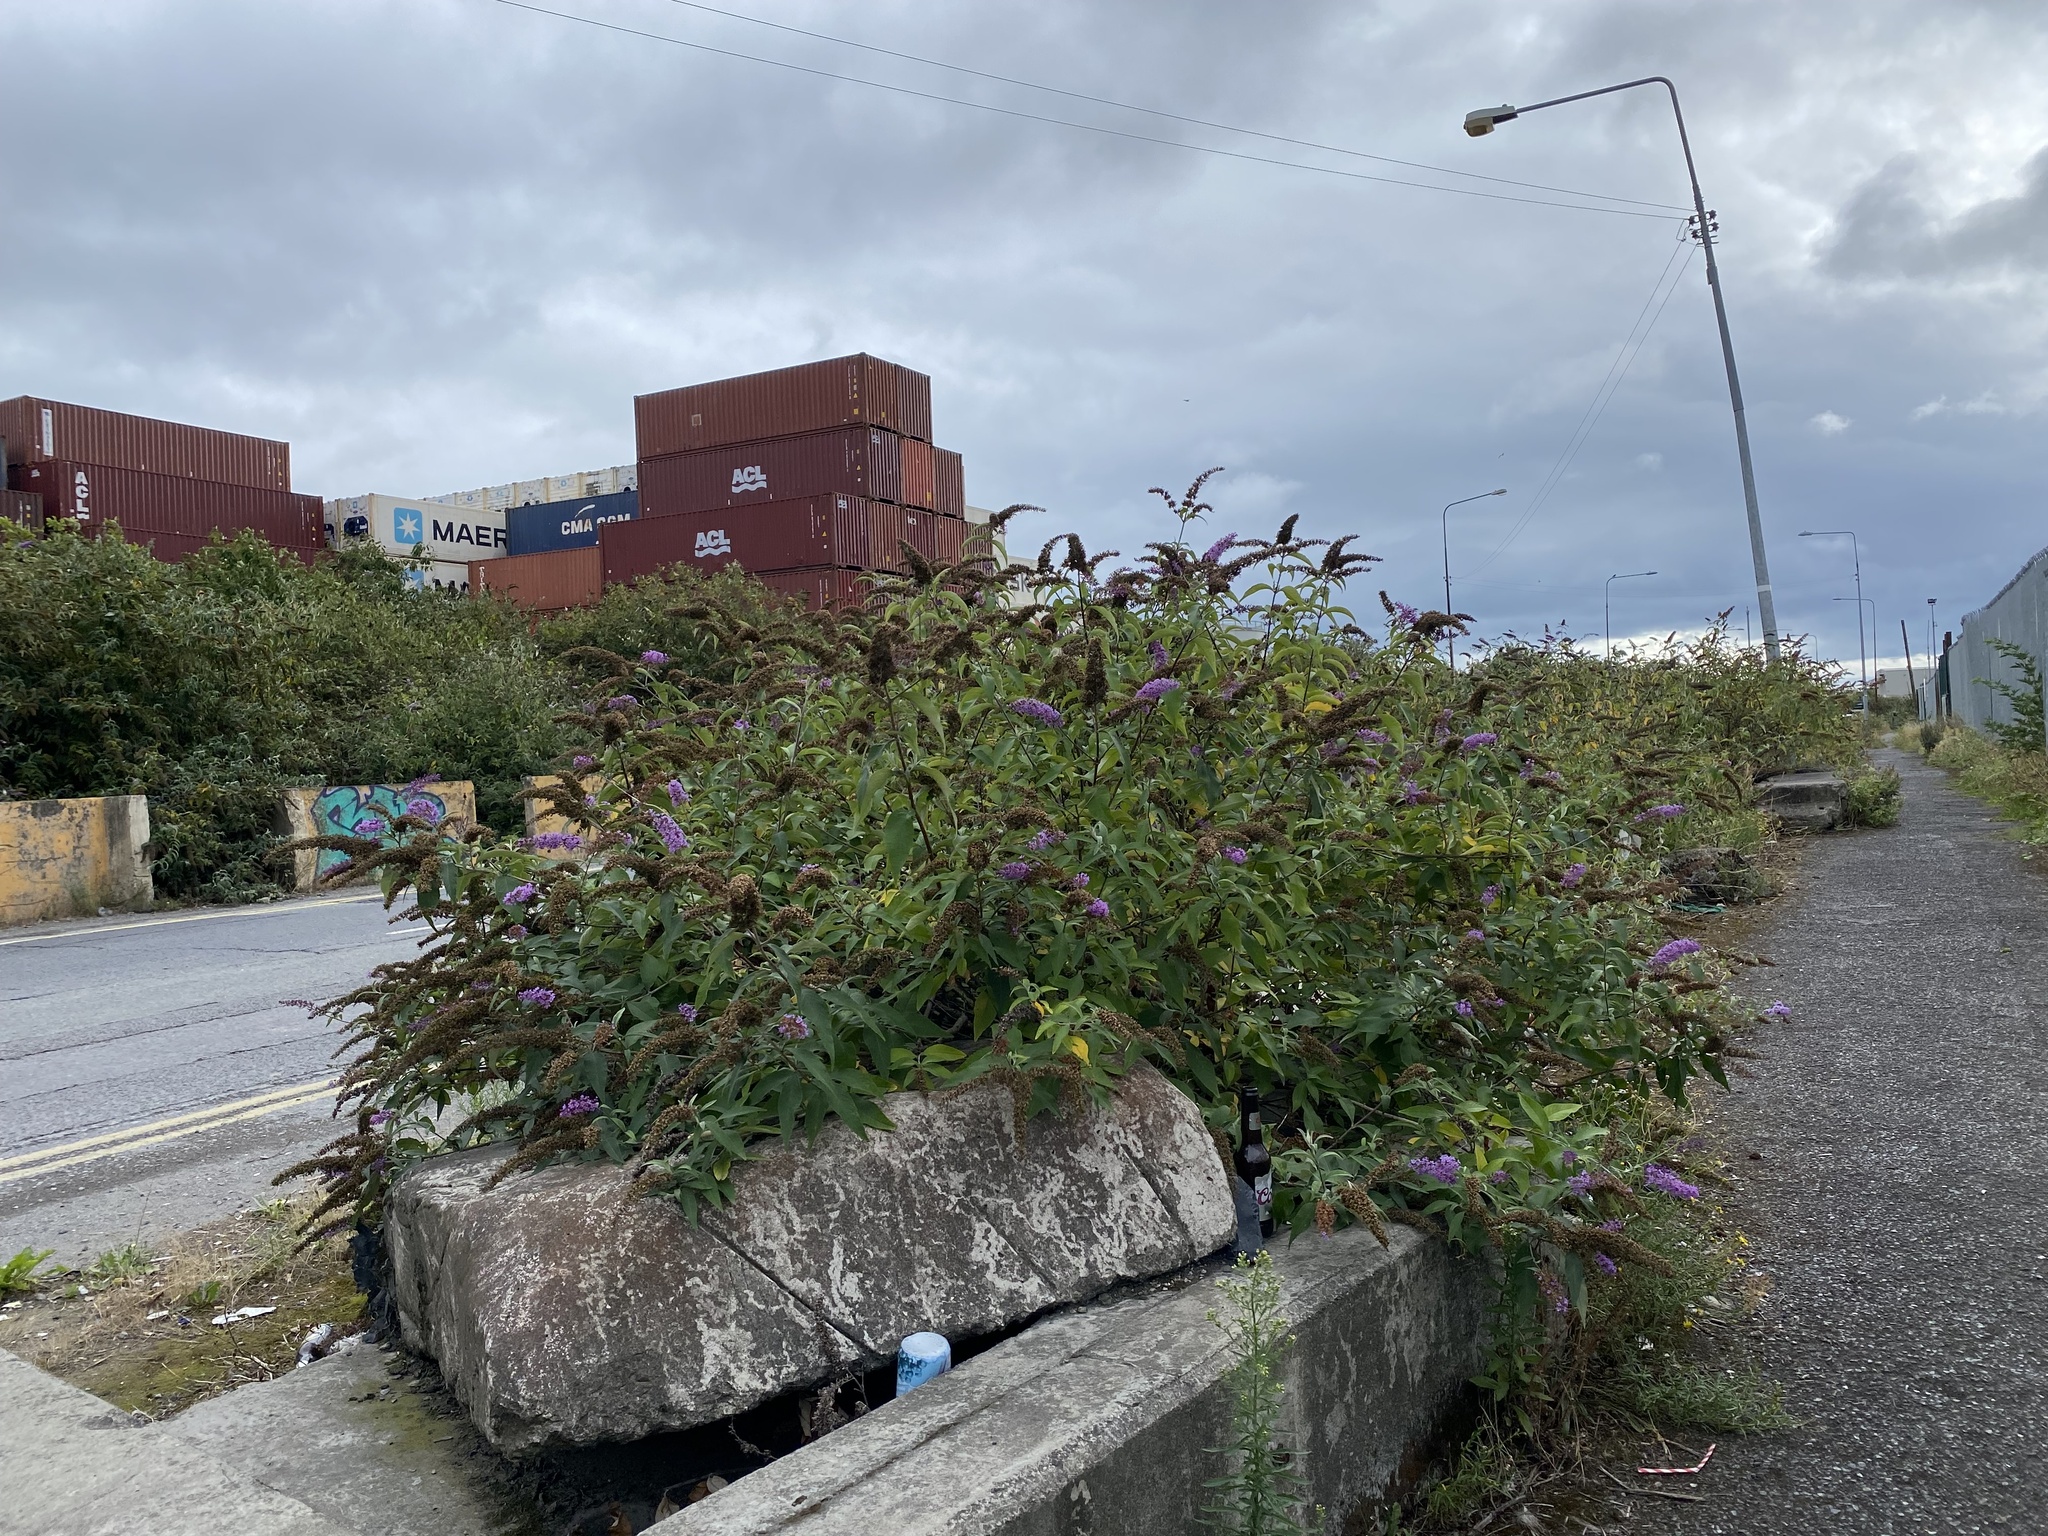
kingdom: Plantae
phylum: Tracheophyta
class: Magnoliopsida
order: Lamiales
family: Scrophulariaceae
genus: Buddleja
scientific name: Buddleja davidii
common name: Butterfly-bush
